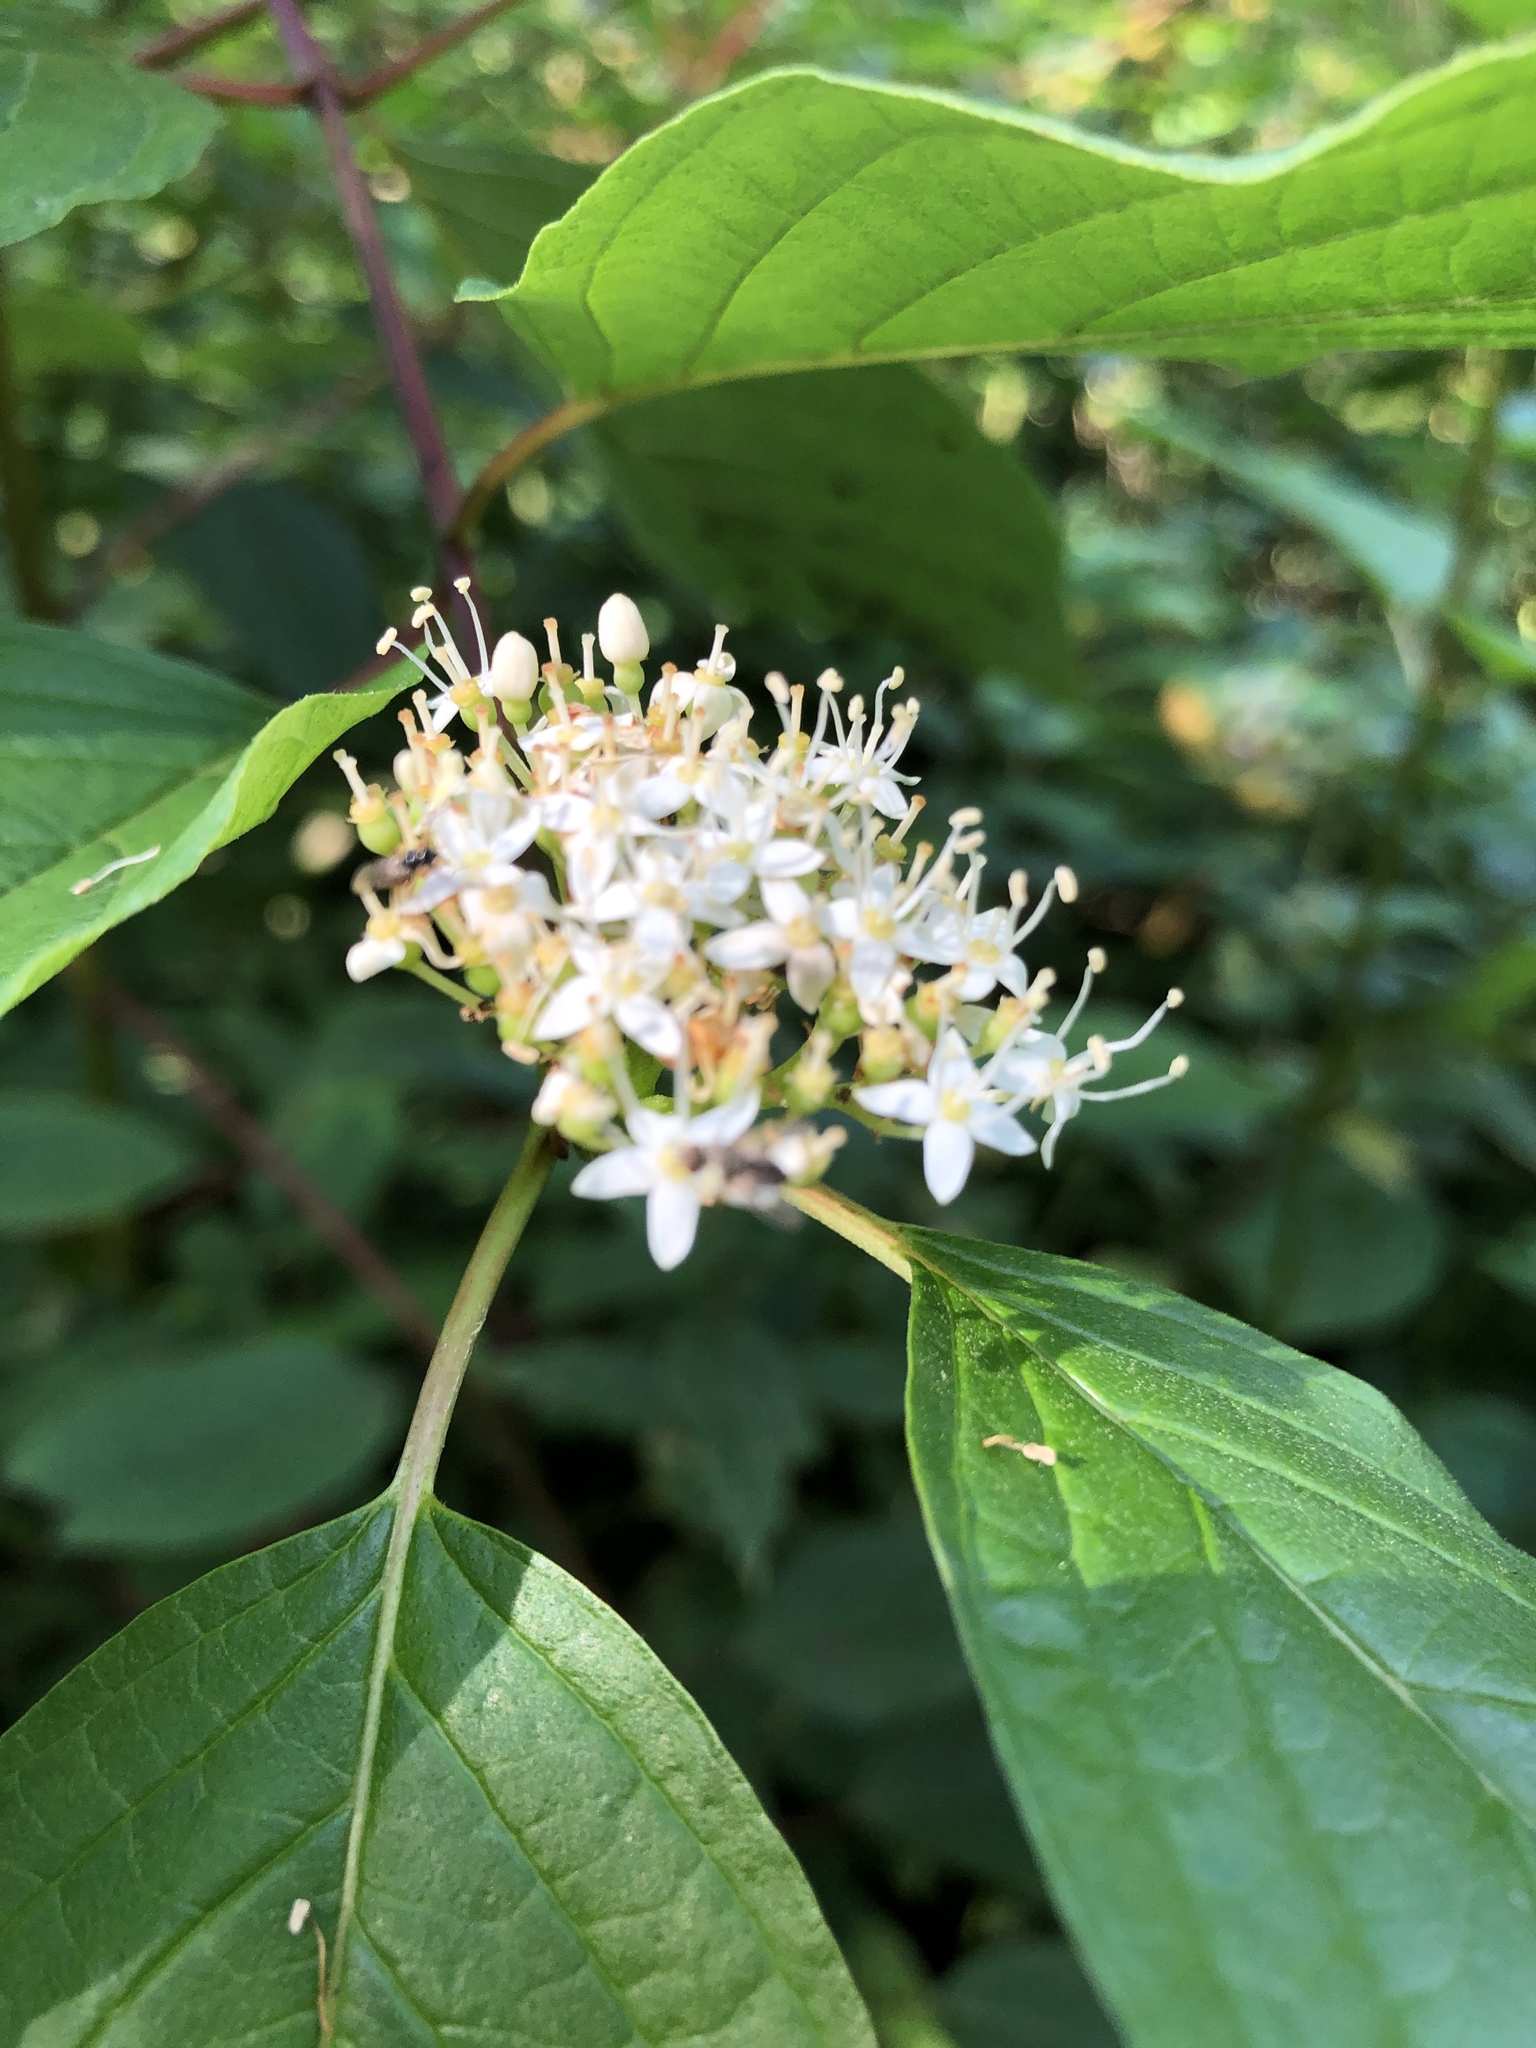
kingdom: Plantae
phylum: Tracheophyta
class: Magnoliopsida
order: Cornales
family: Cornaceae
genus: Cornus
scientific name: Cornus sericea
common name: Red-osier dogwood
